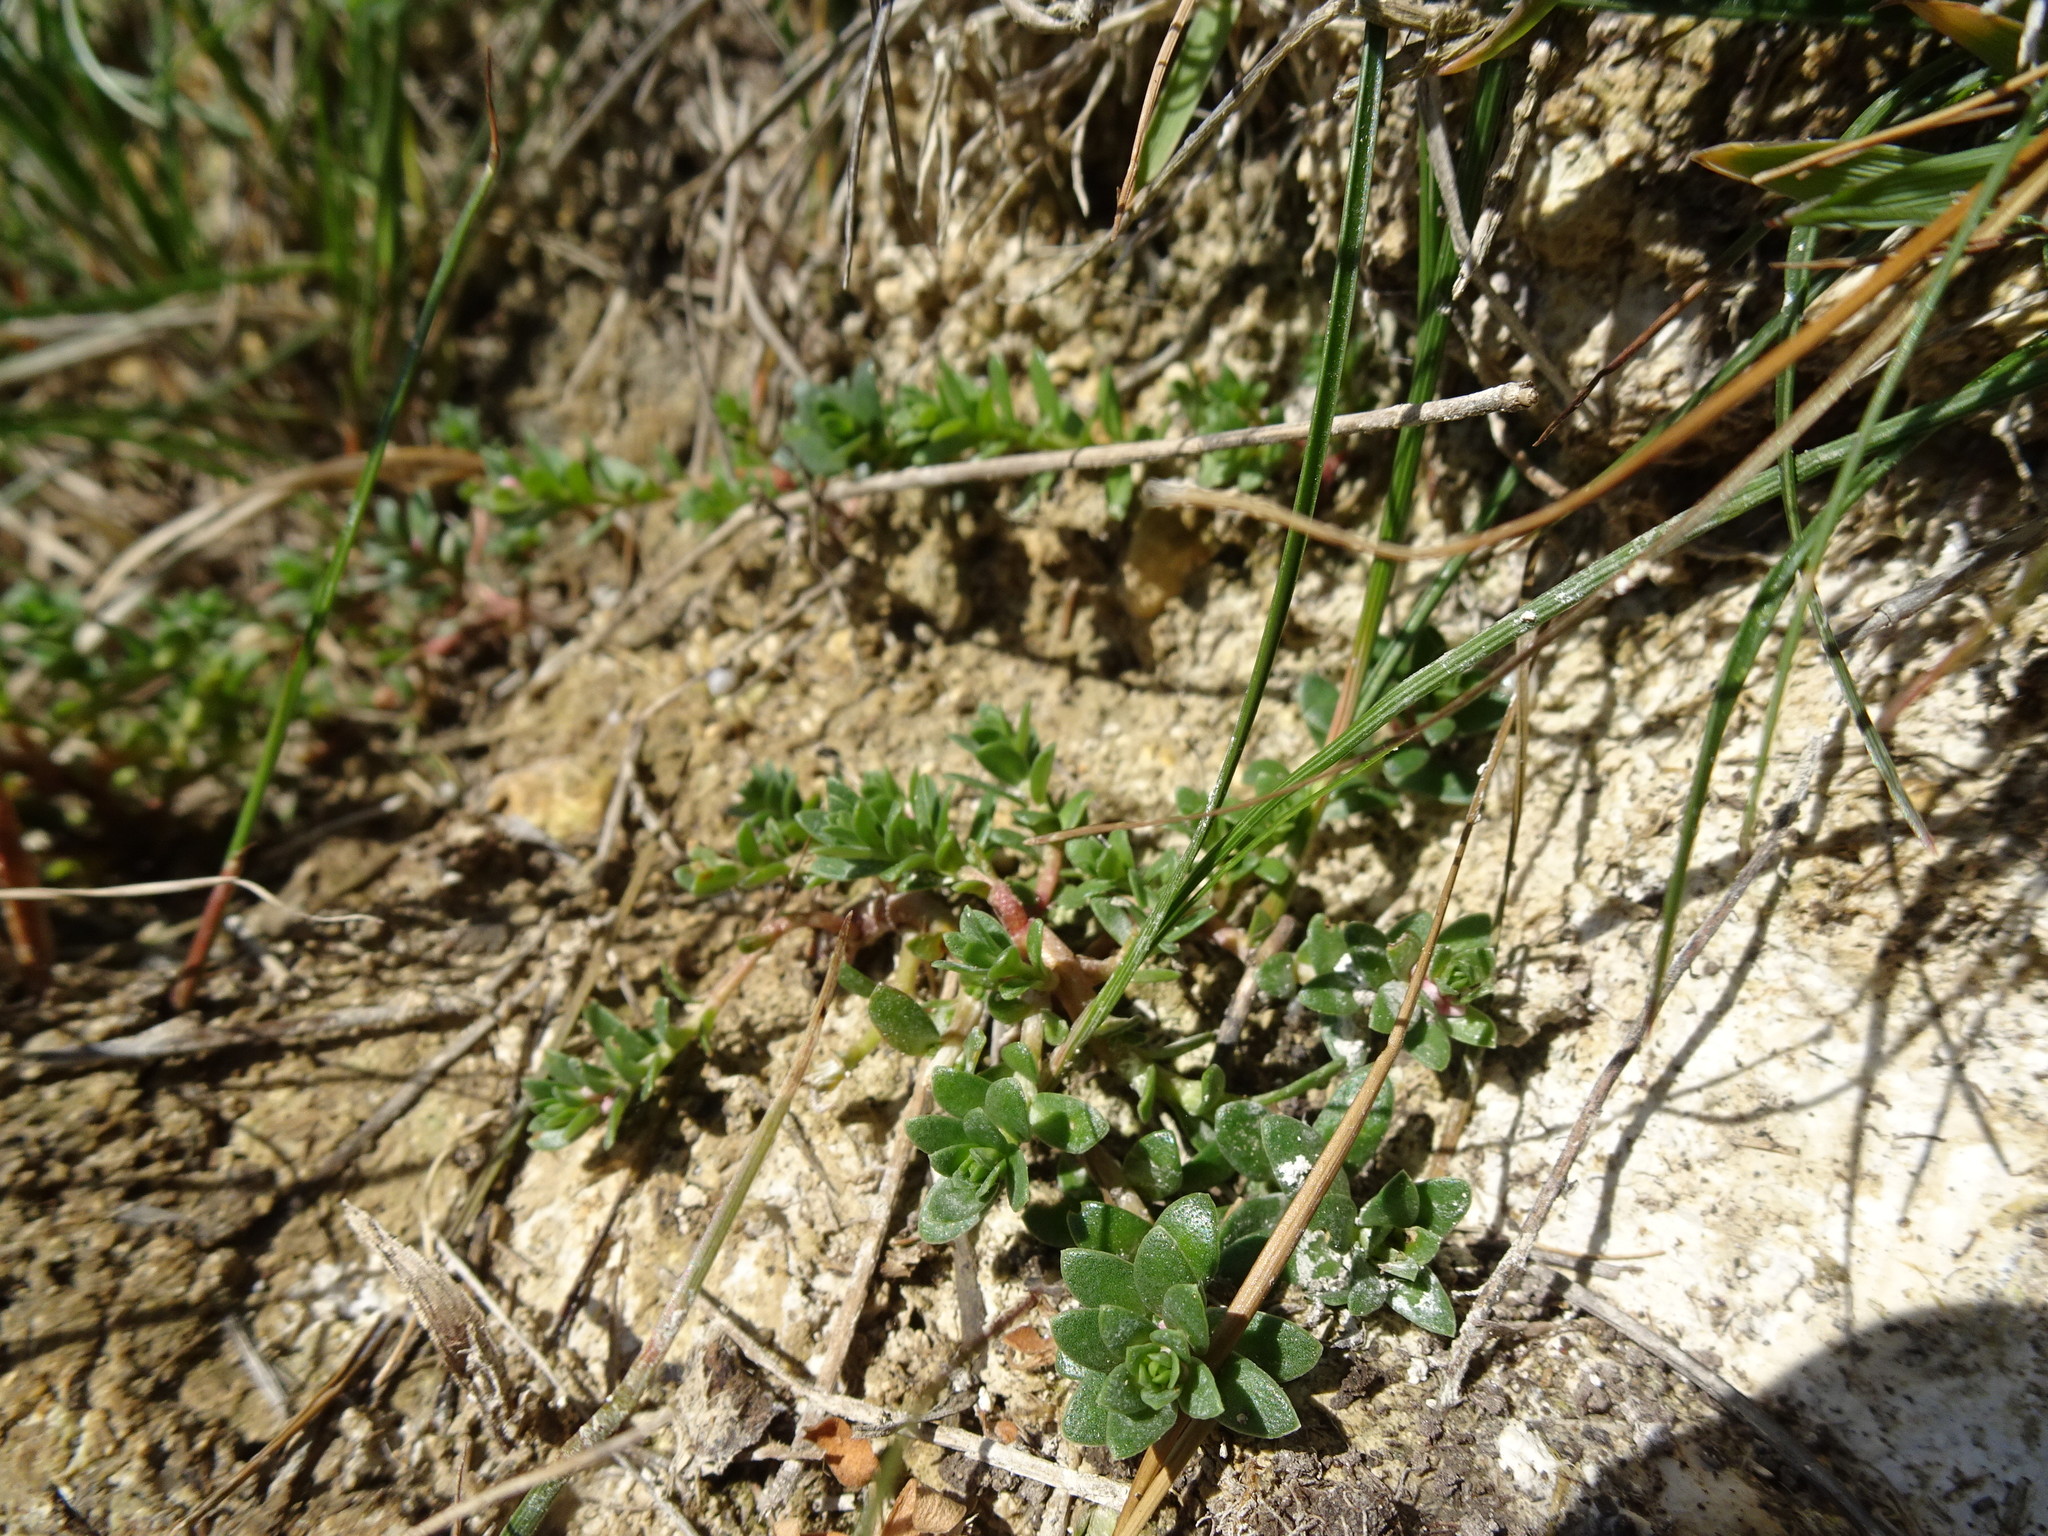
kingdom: Plantae
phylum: Tracheophyta
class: Magnoliopsida
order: Ericales
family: Primulaceae
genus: Lysimachia
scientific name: Lysimachia maritima
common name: Sea milkwort
